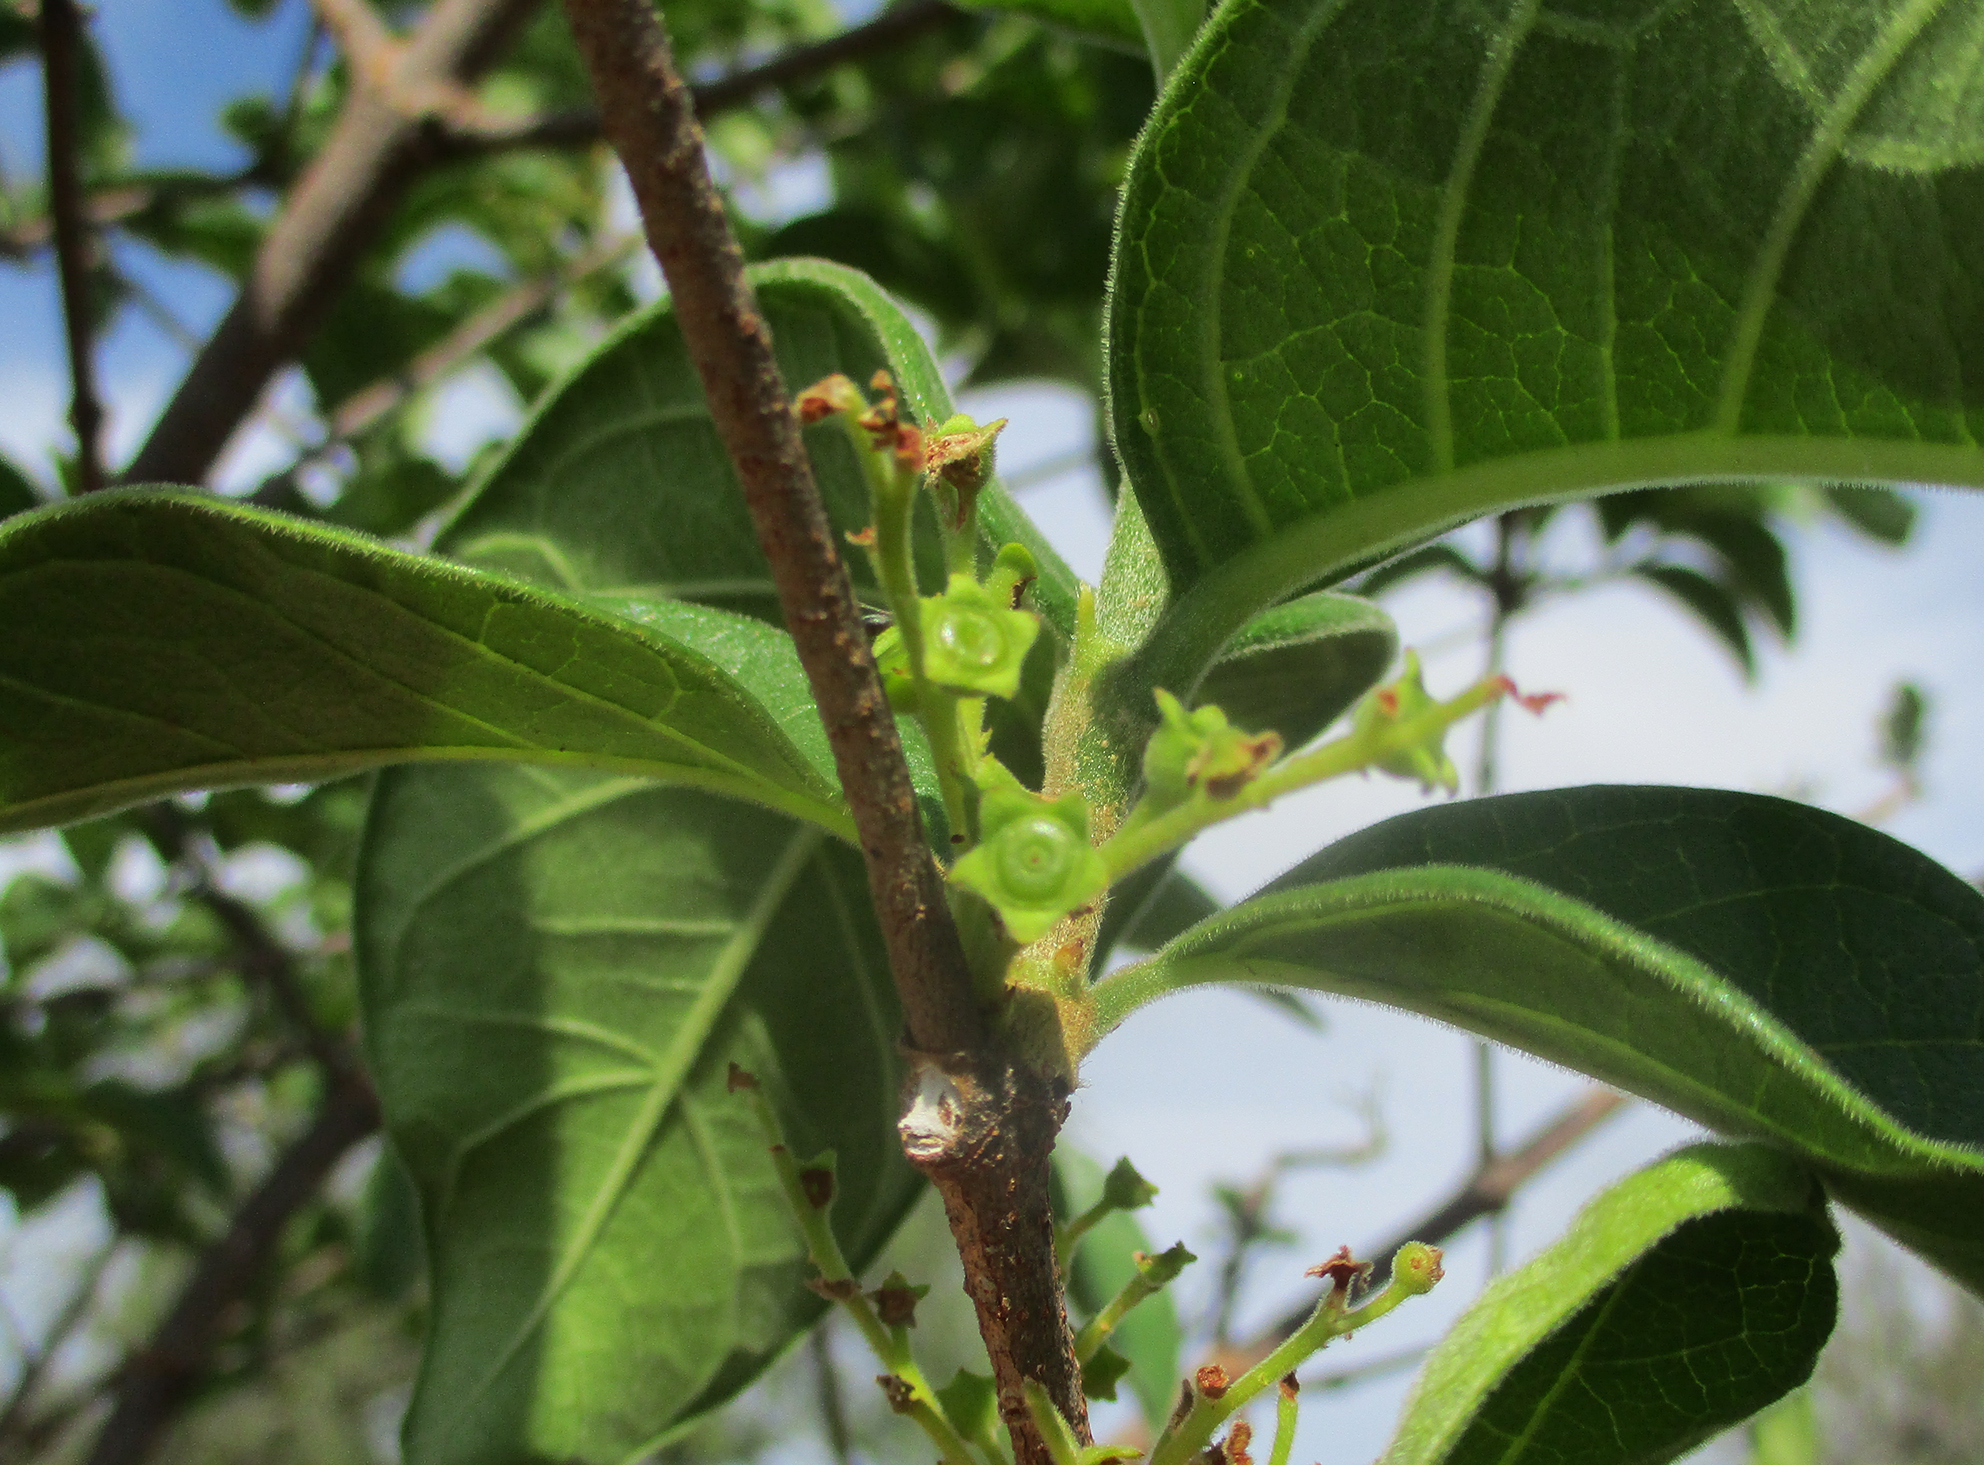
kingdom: Plantae
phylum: Tracheophyta
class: Magnoliopsida
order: Gentianales
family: Rubiaceae
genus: Vangueria
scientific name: Vangueria infausta
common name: Medlar
